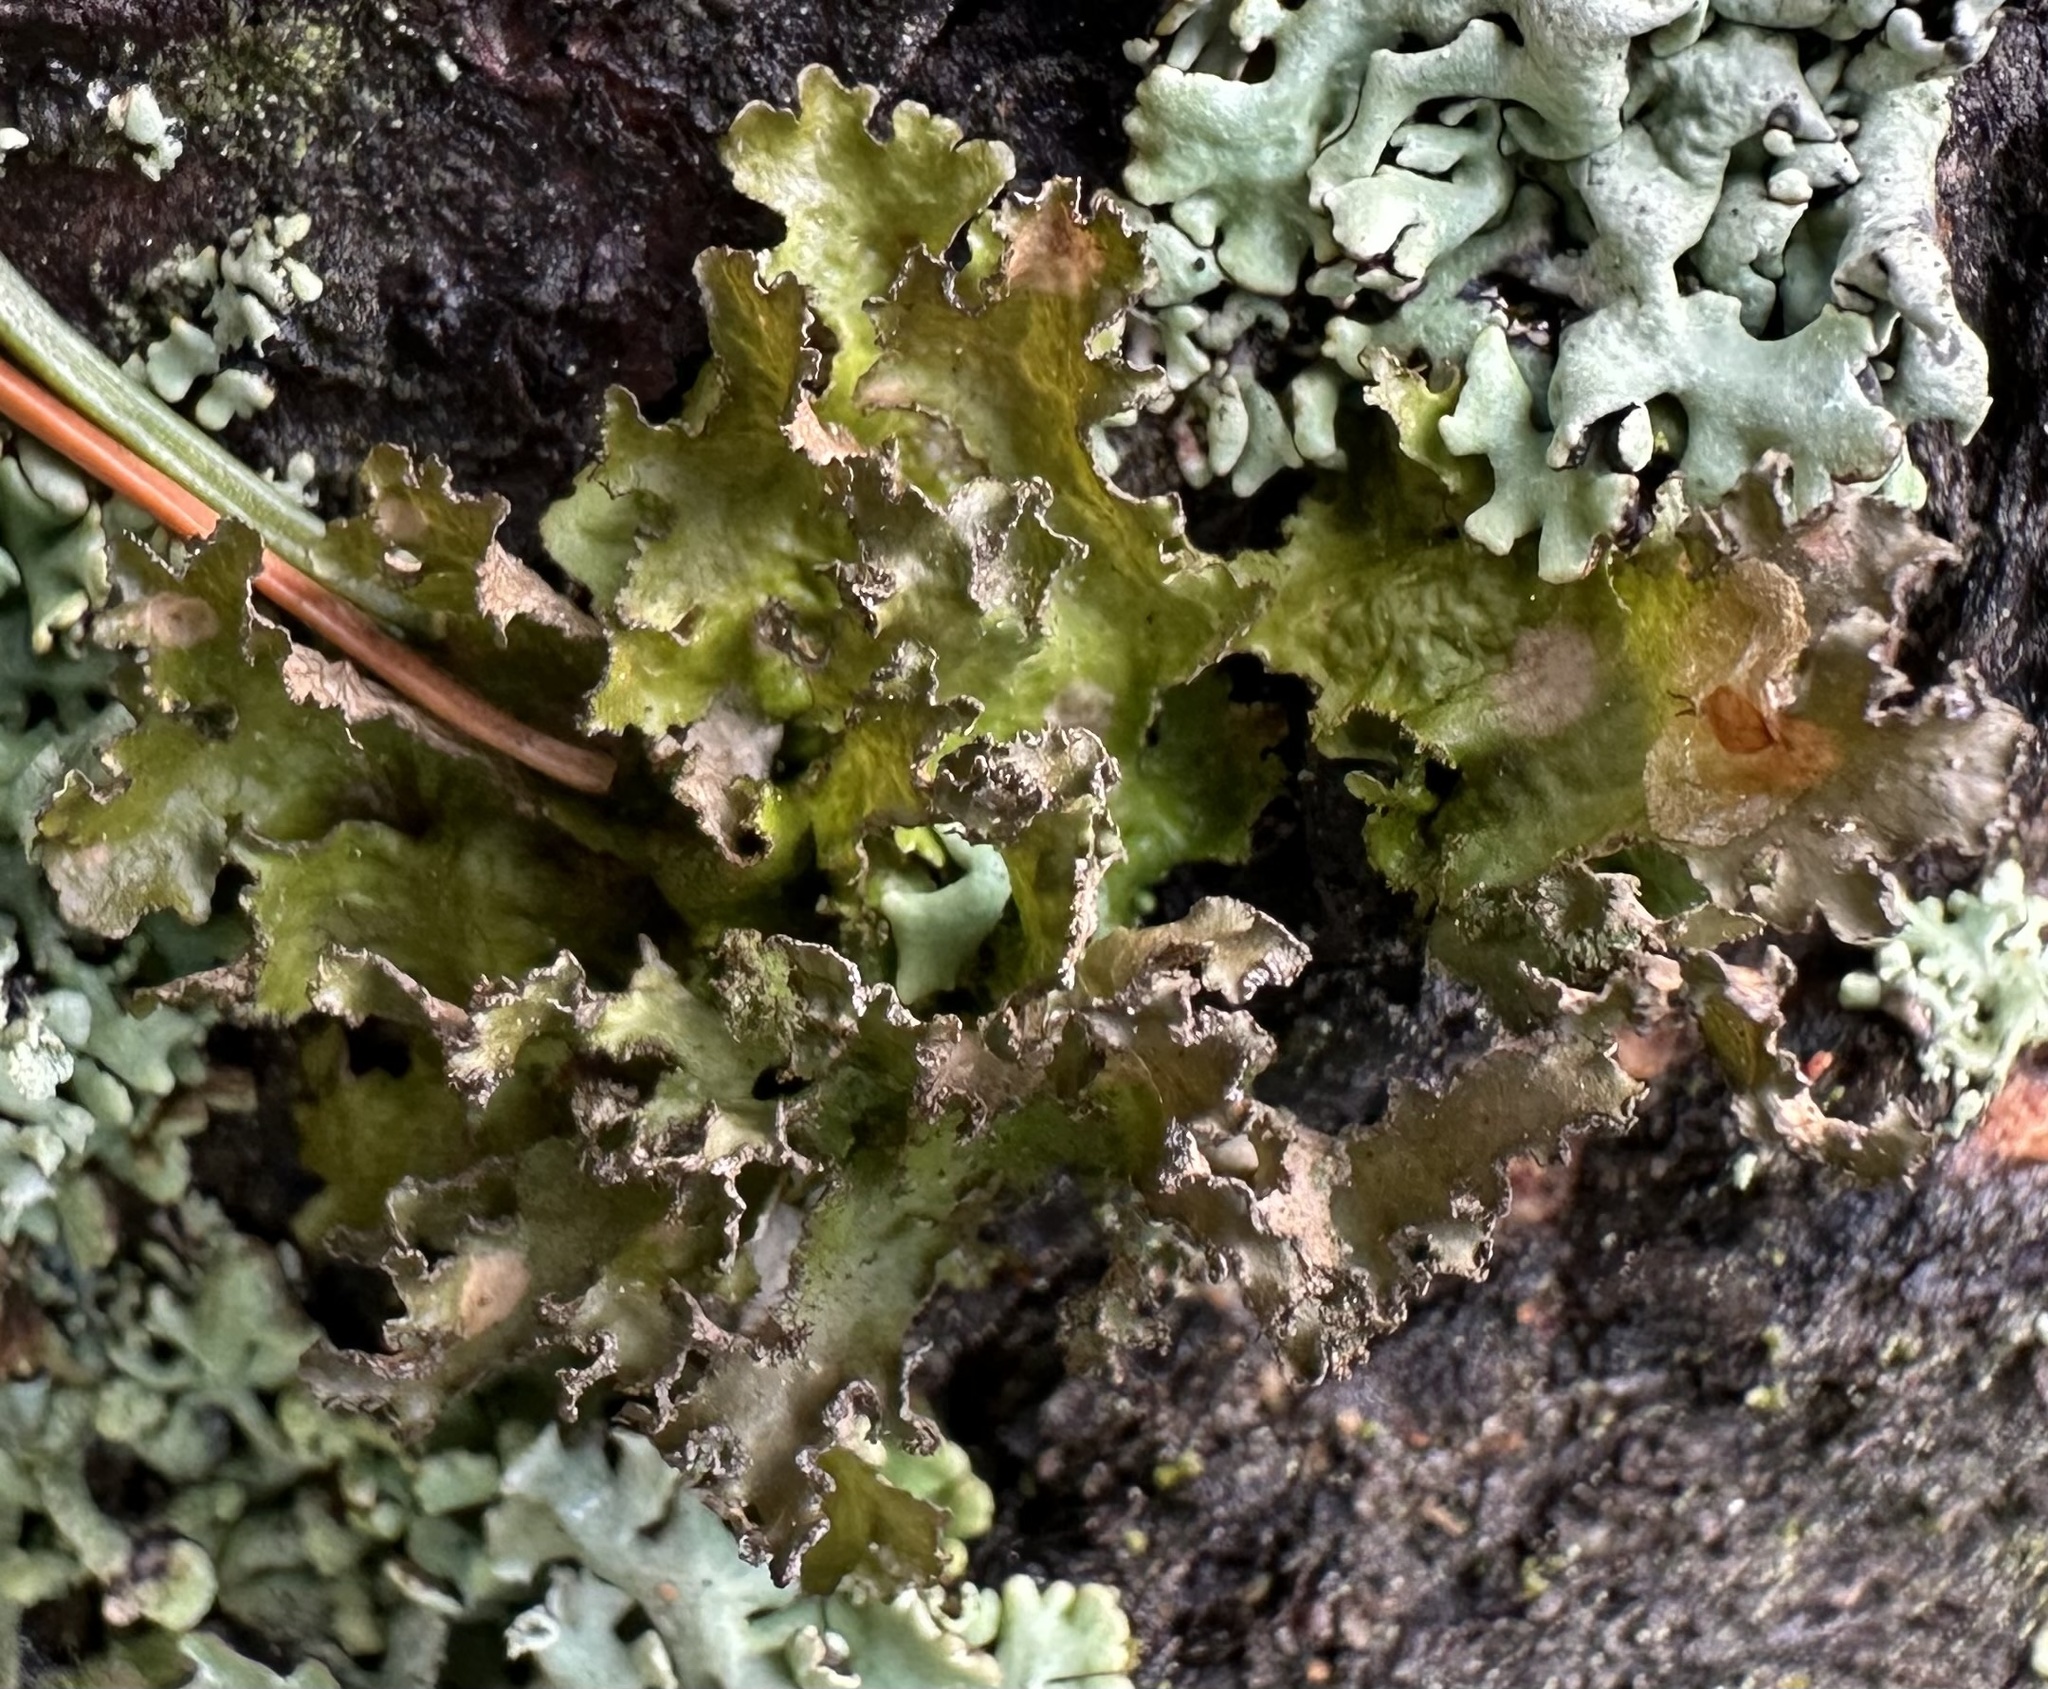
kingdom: Fungi
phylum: Ascomycota
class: Lecanoromycetes
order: Lecanorales
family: Parmeliaceae
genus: Nephromopsis
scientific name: Nephromopsis chlorophylla
